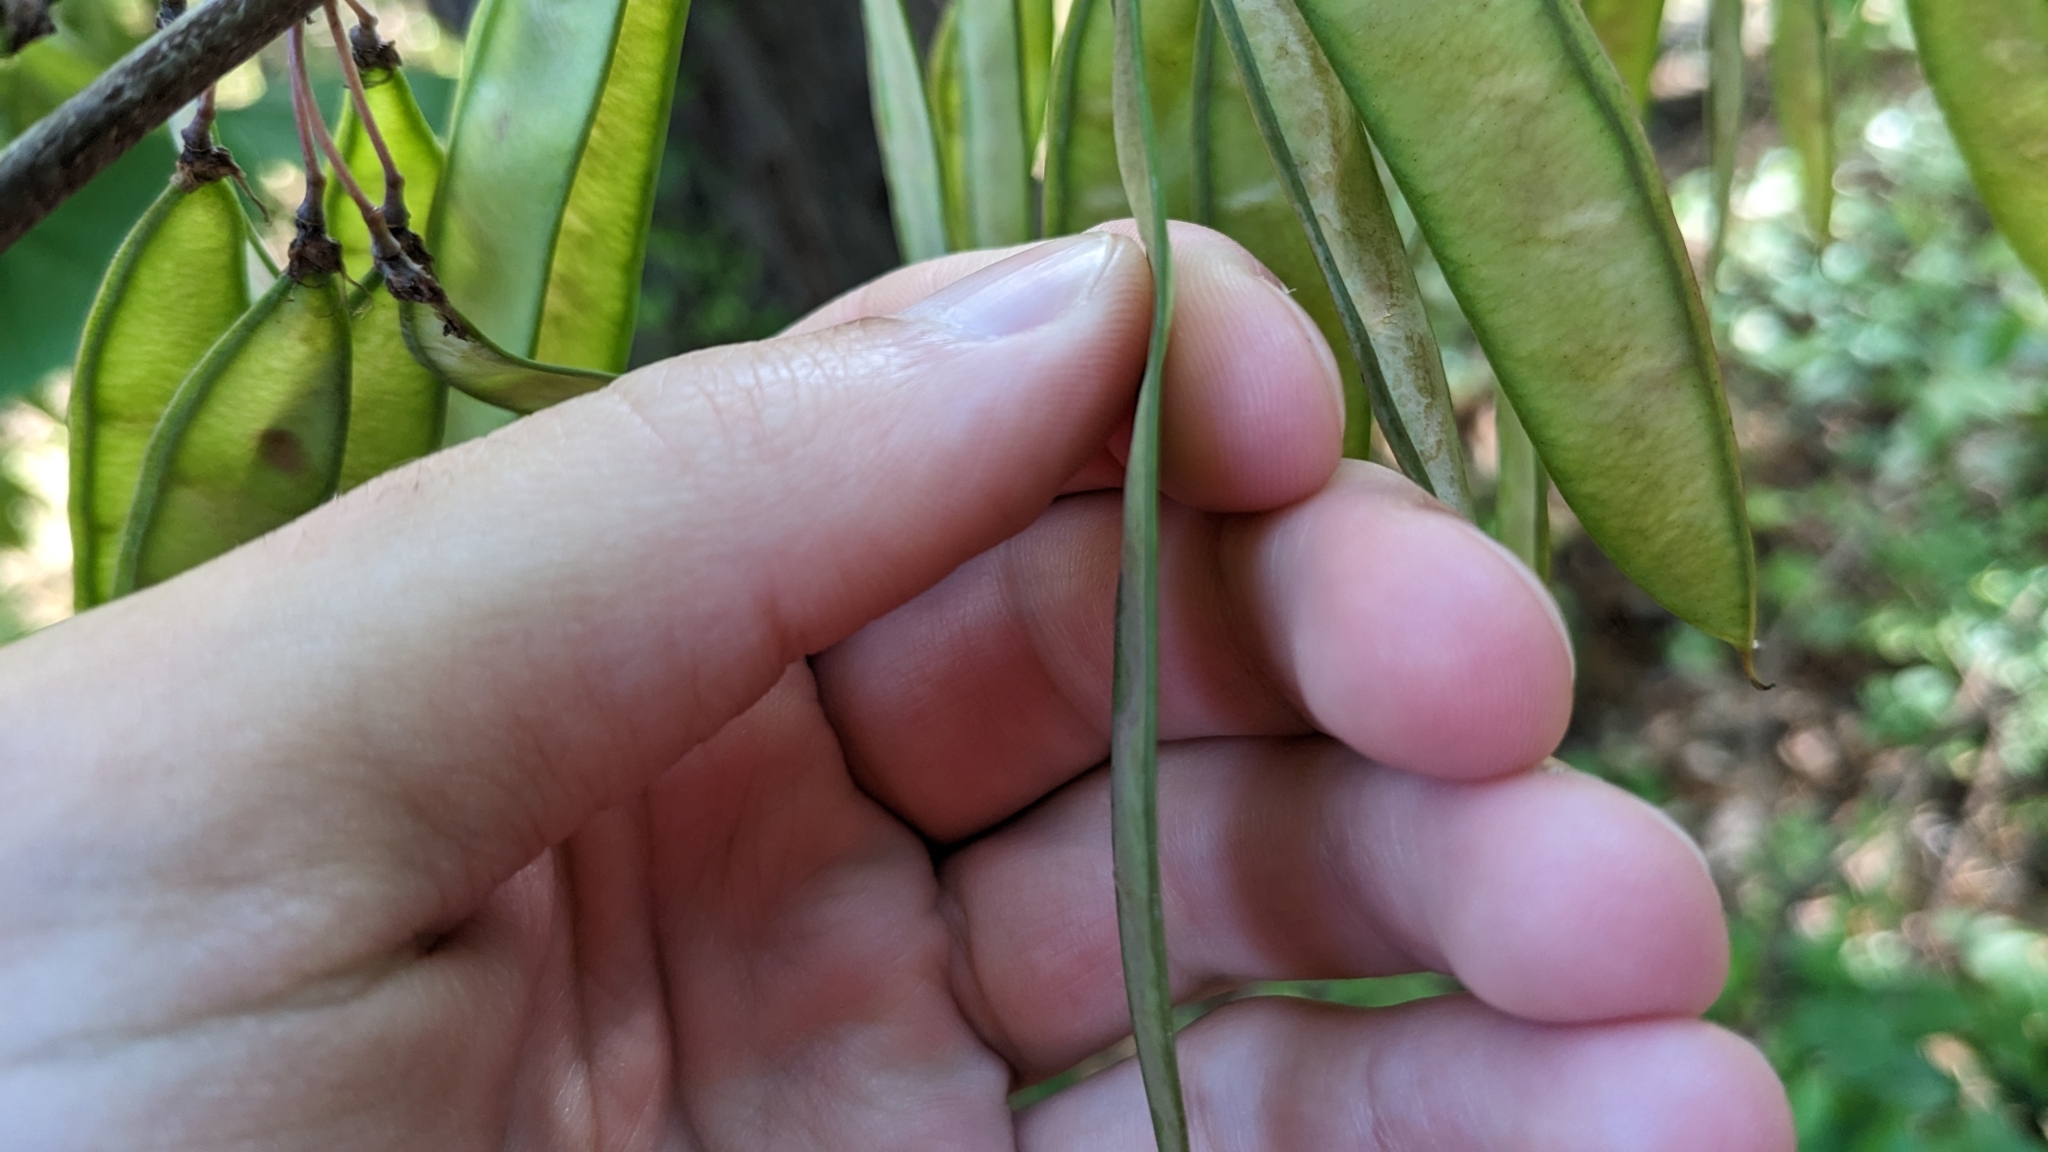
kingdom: Plantae
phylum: Tracheophyta
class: Magnoliopsida
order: Fabales
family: Fabaceae
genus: Cercis
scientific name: Cercis canadensis
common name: Eastern redbud
